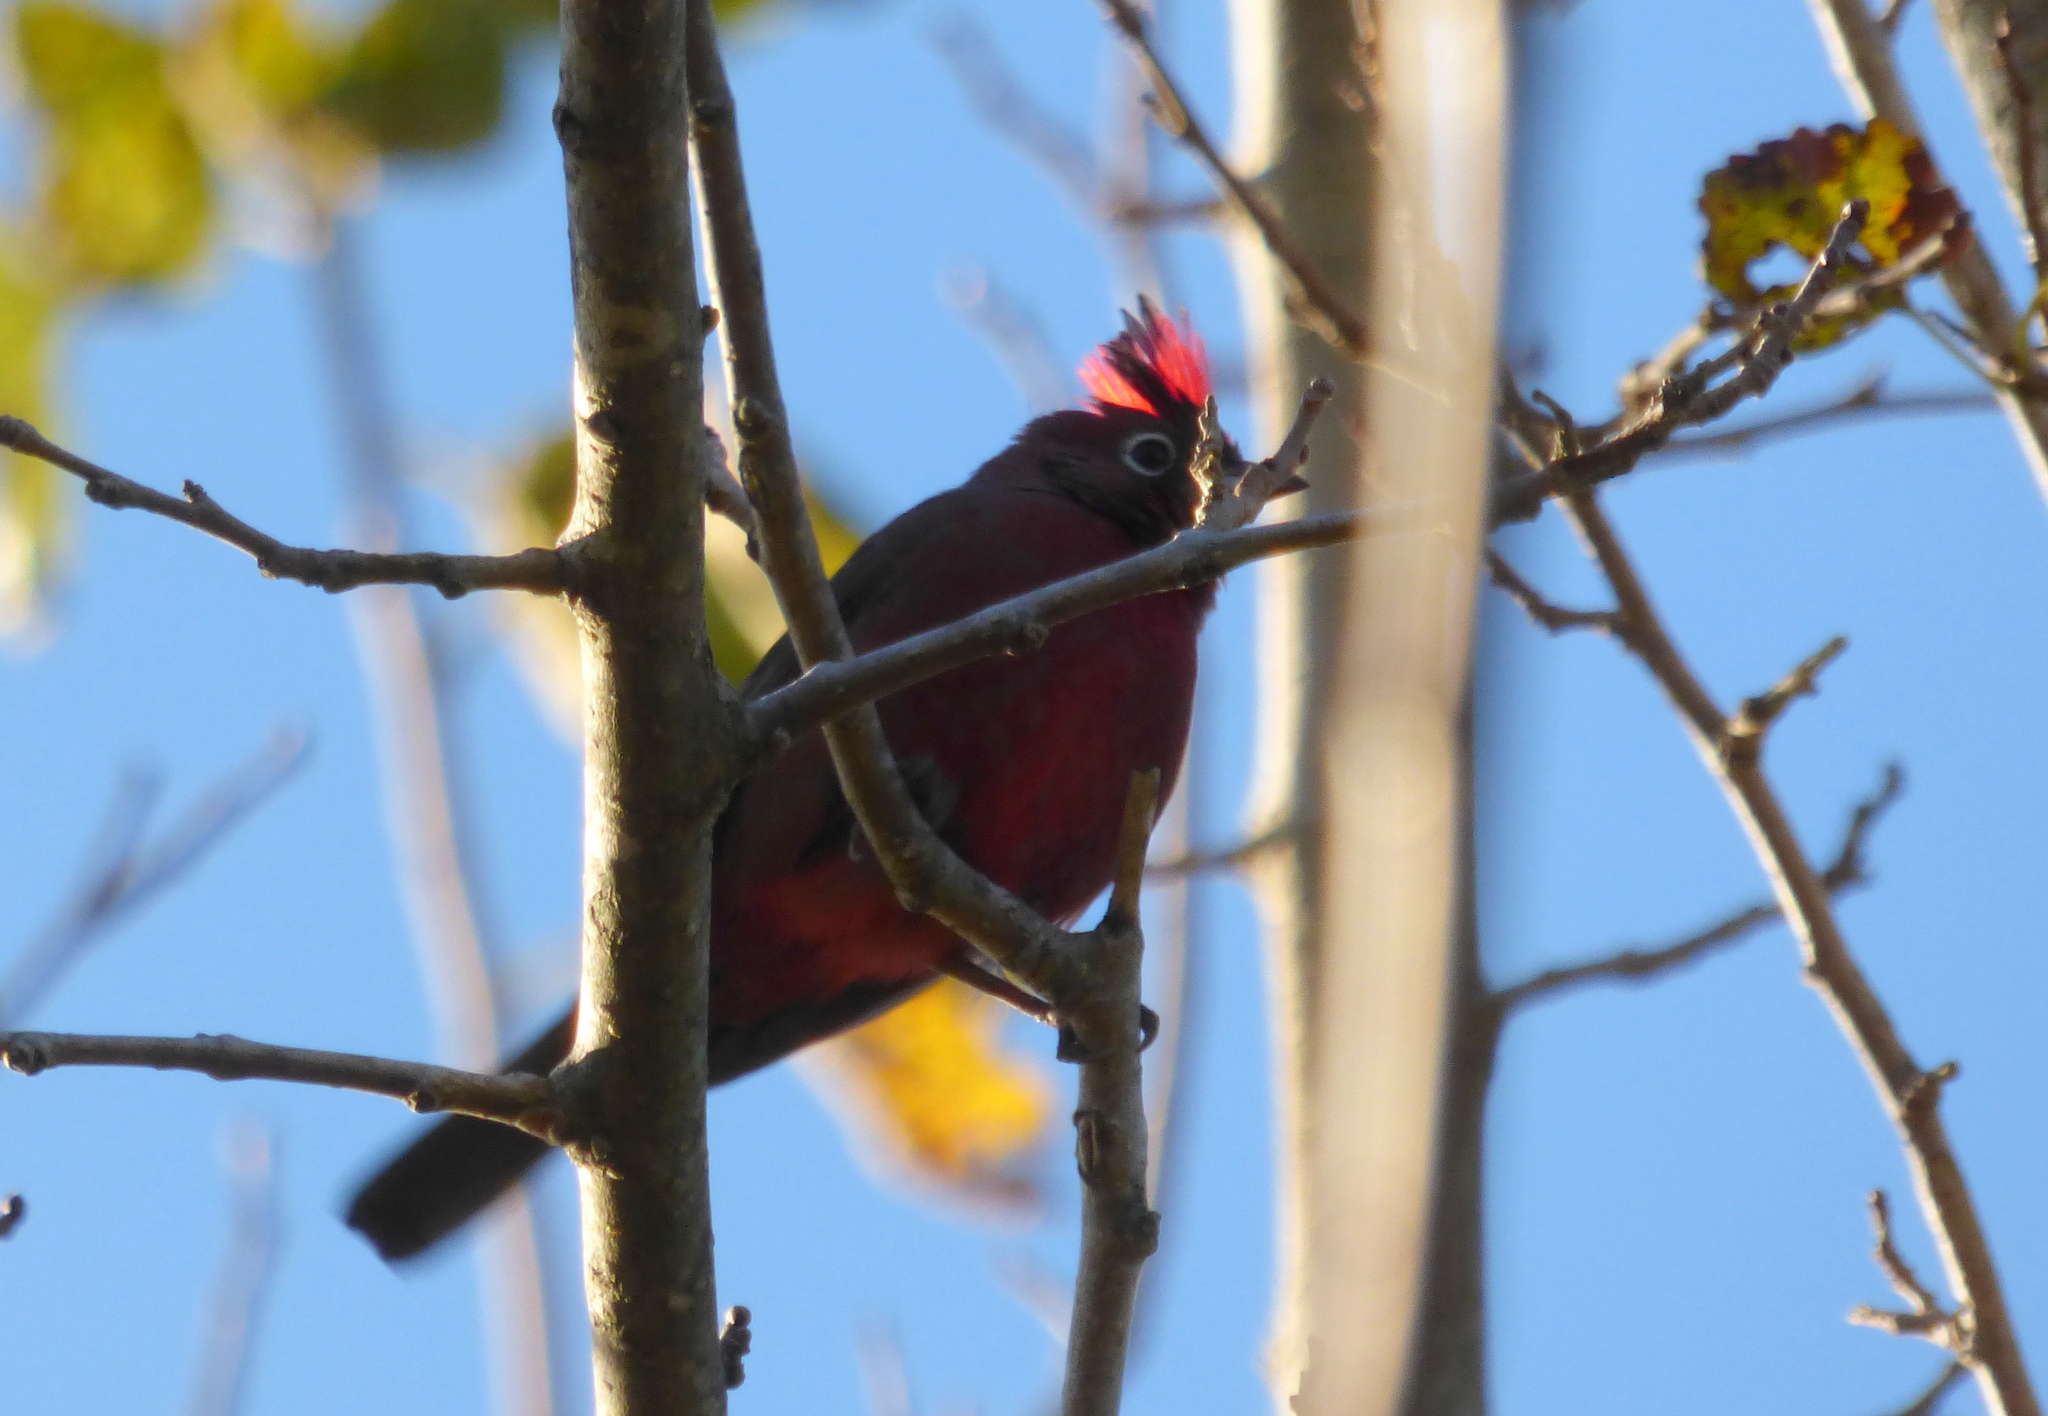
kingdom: Animalia
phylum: Chordata
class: Aves
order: Passeriformes
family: Thraupidae
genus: Coryphospingus
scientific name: Coryphospingus cucullatus
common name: Red pileated finch
